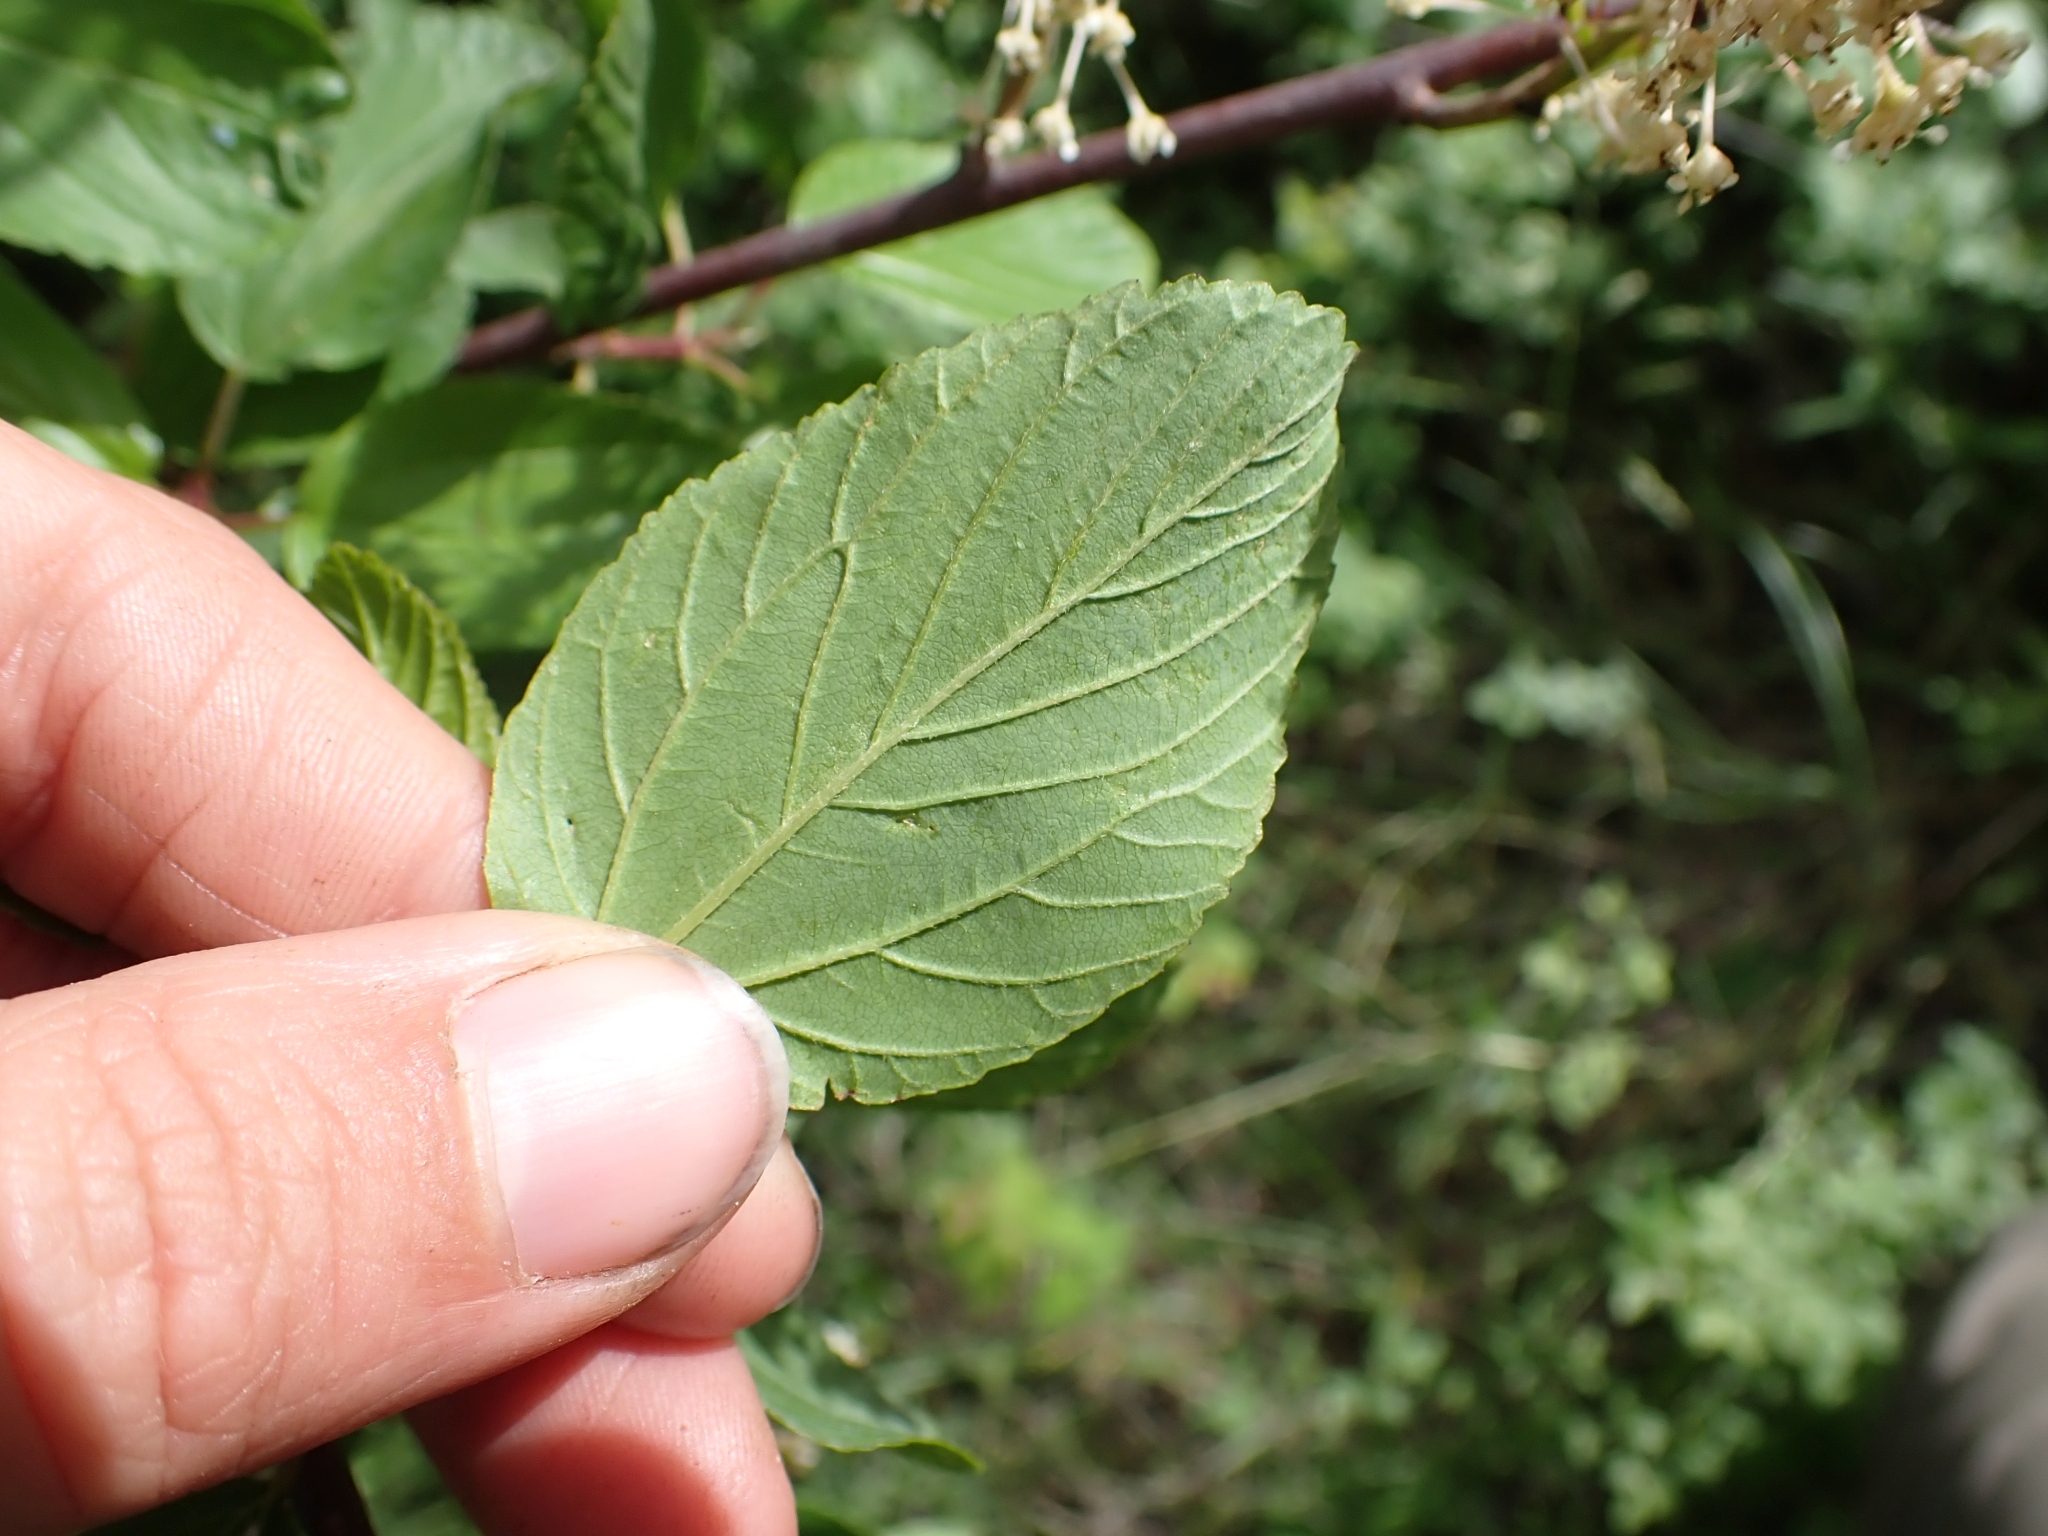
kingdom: Plantae
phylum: Tracheophyta
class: Magnoliopsida
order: Rosales
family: Rhamnaceae
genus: Ceanothus
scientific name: Ceanothus sanguineus
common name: Teatree
